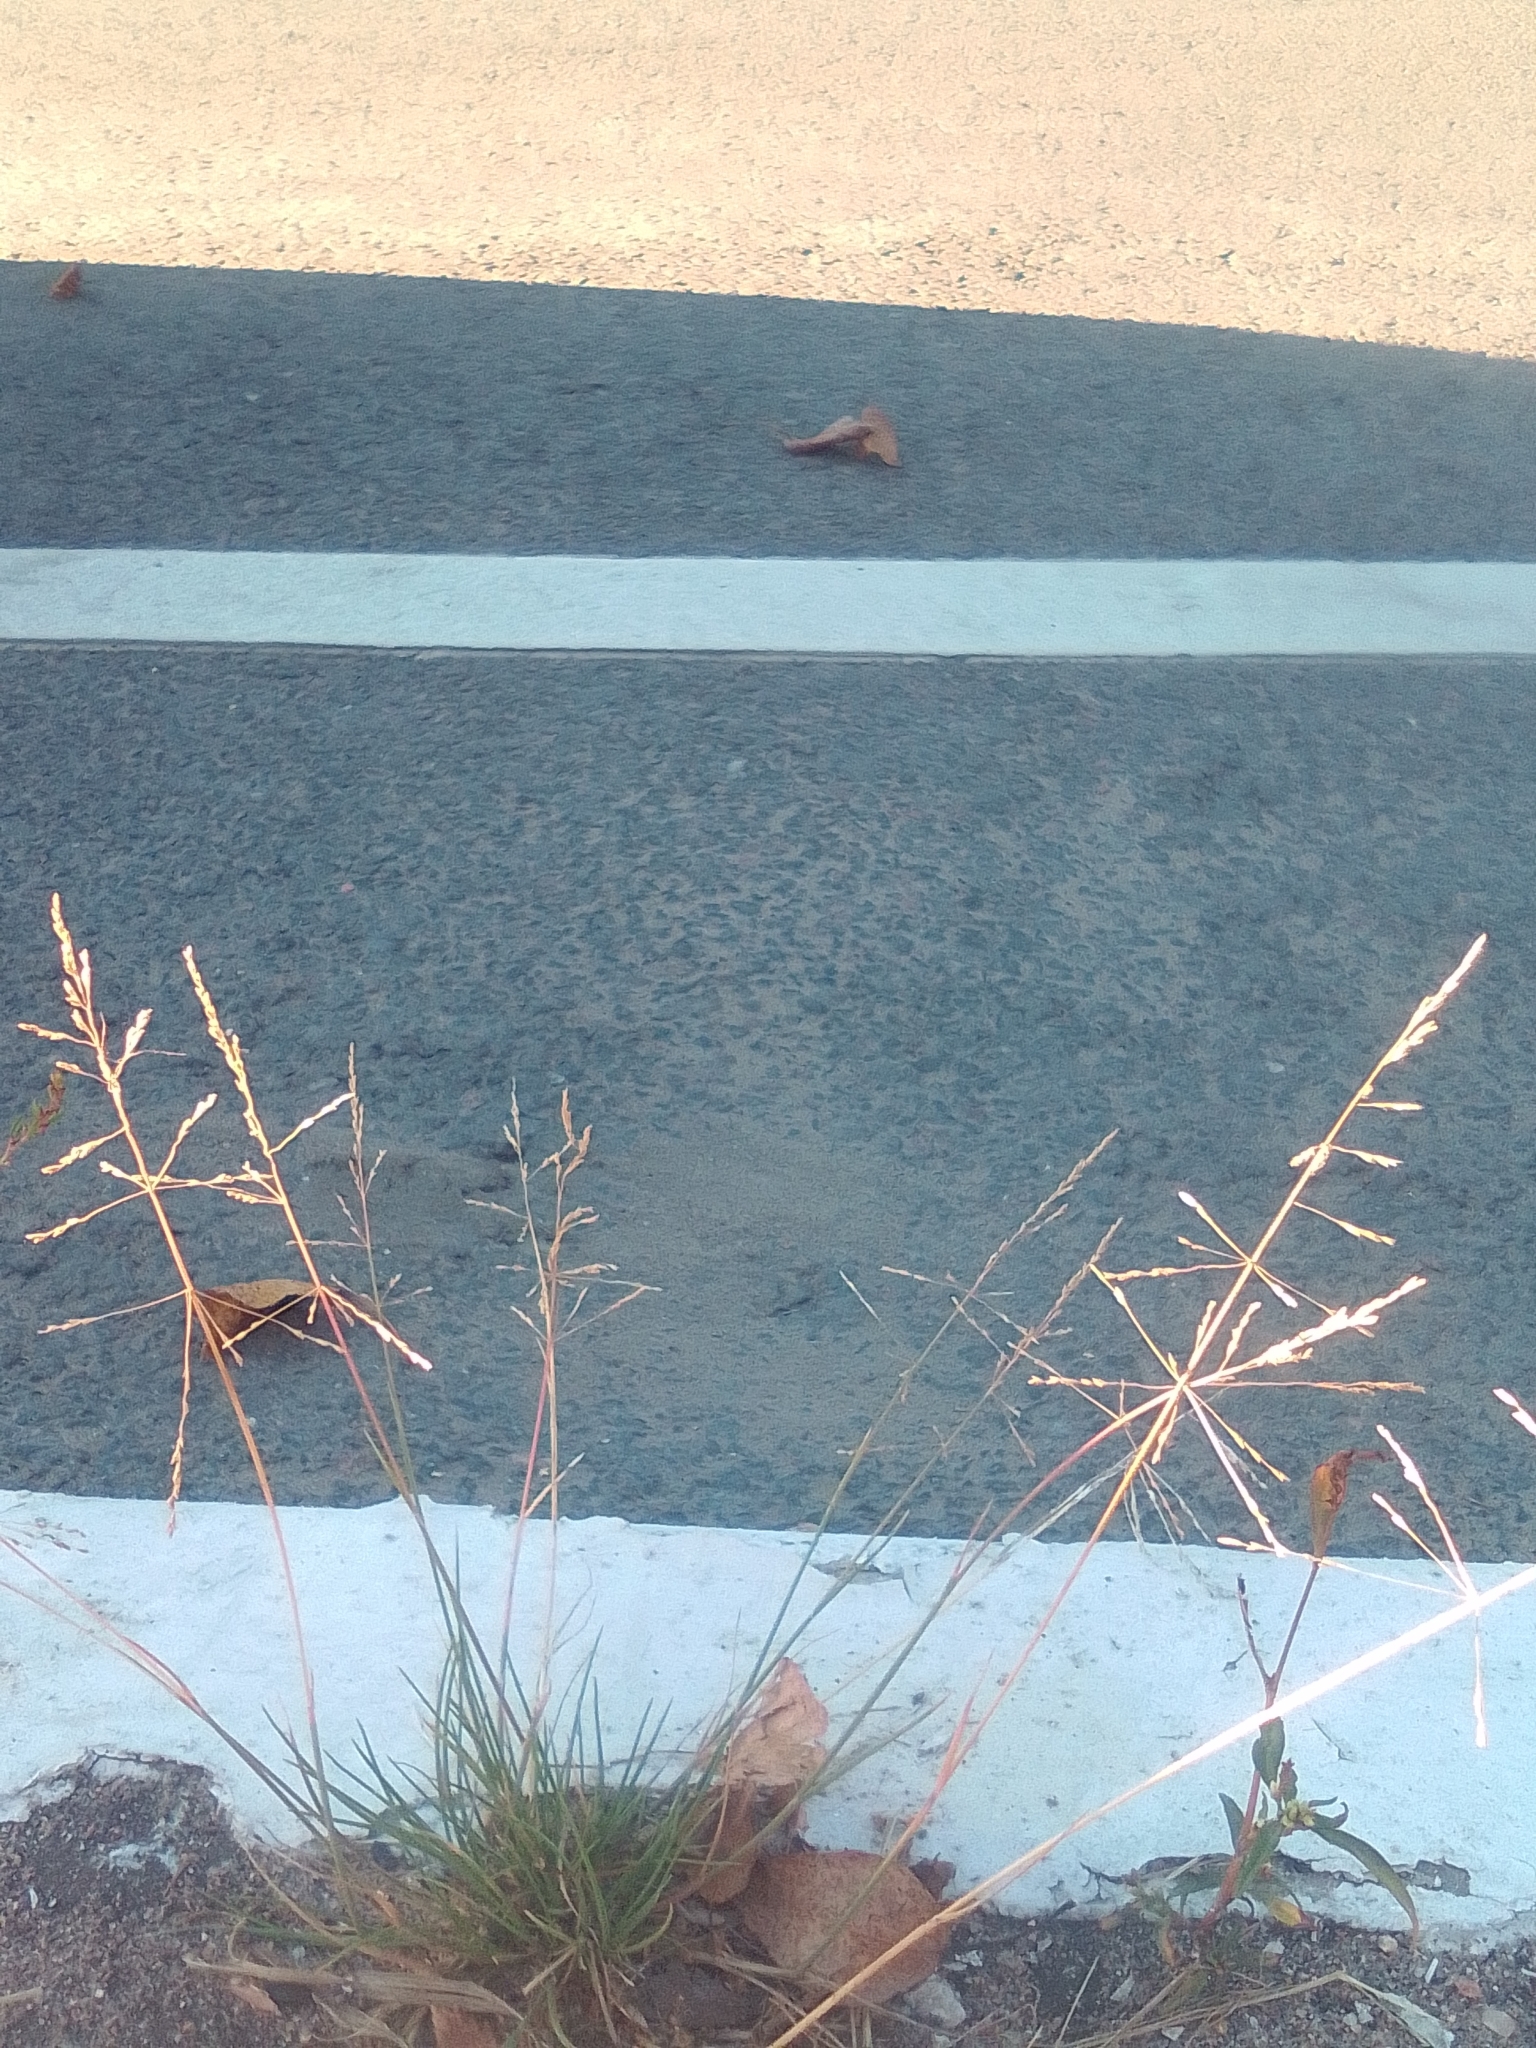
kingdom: Plantae
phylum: Tracheophyta
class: Liliopsida
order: Poales
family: Poaceae
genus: Puccinellia
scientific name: Puccinellia distans
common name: Weeping alkaligrass
